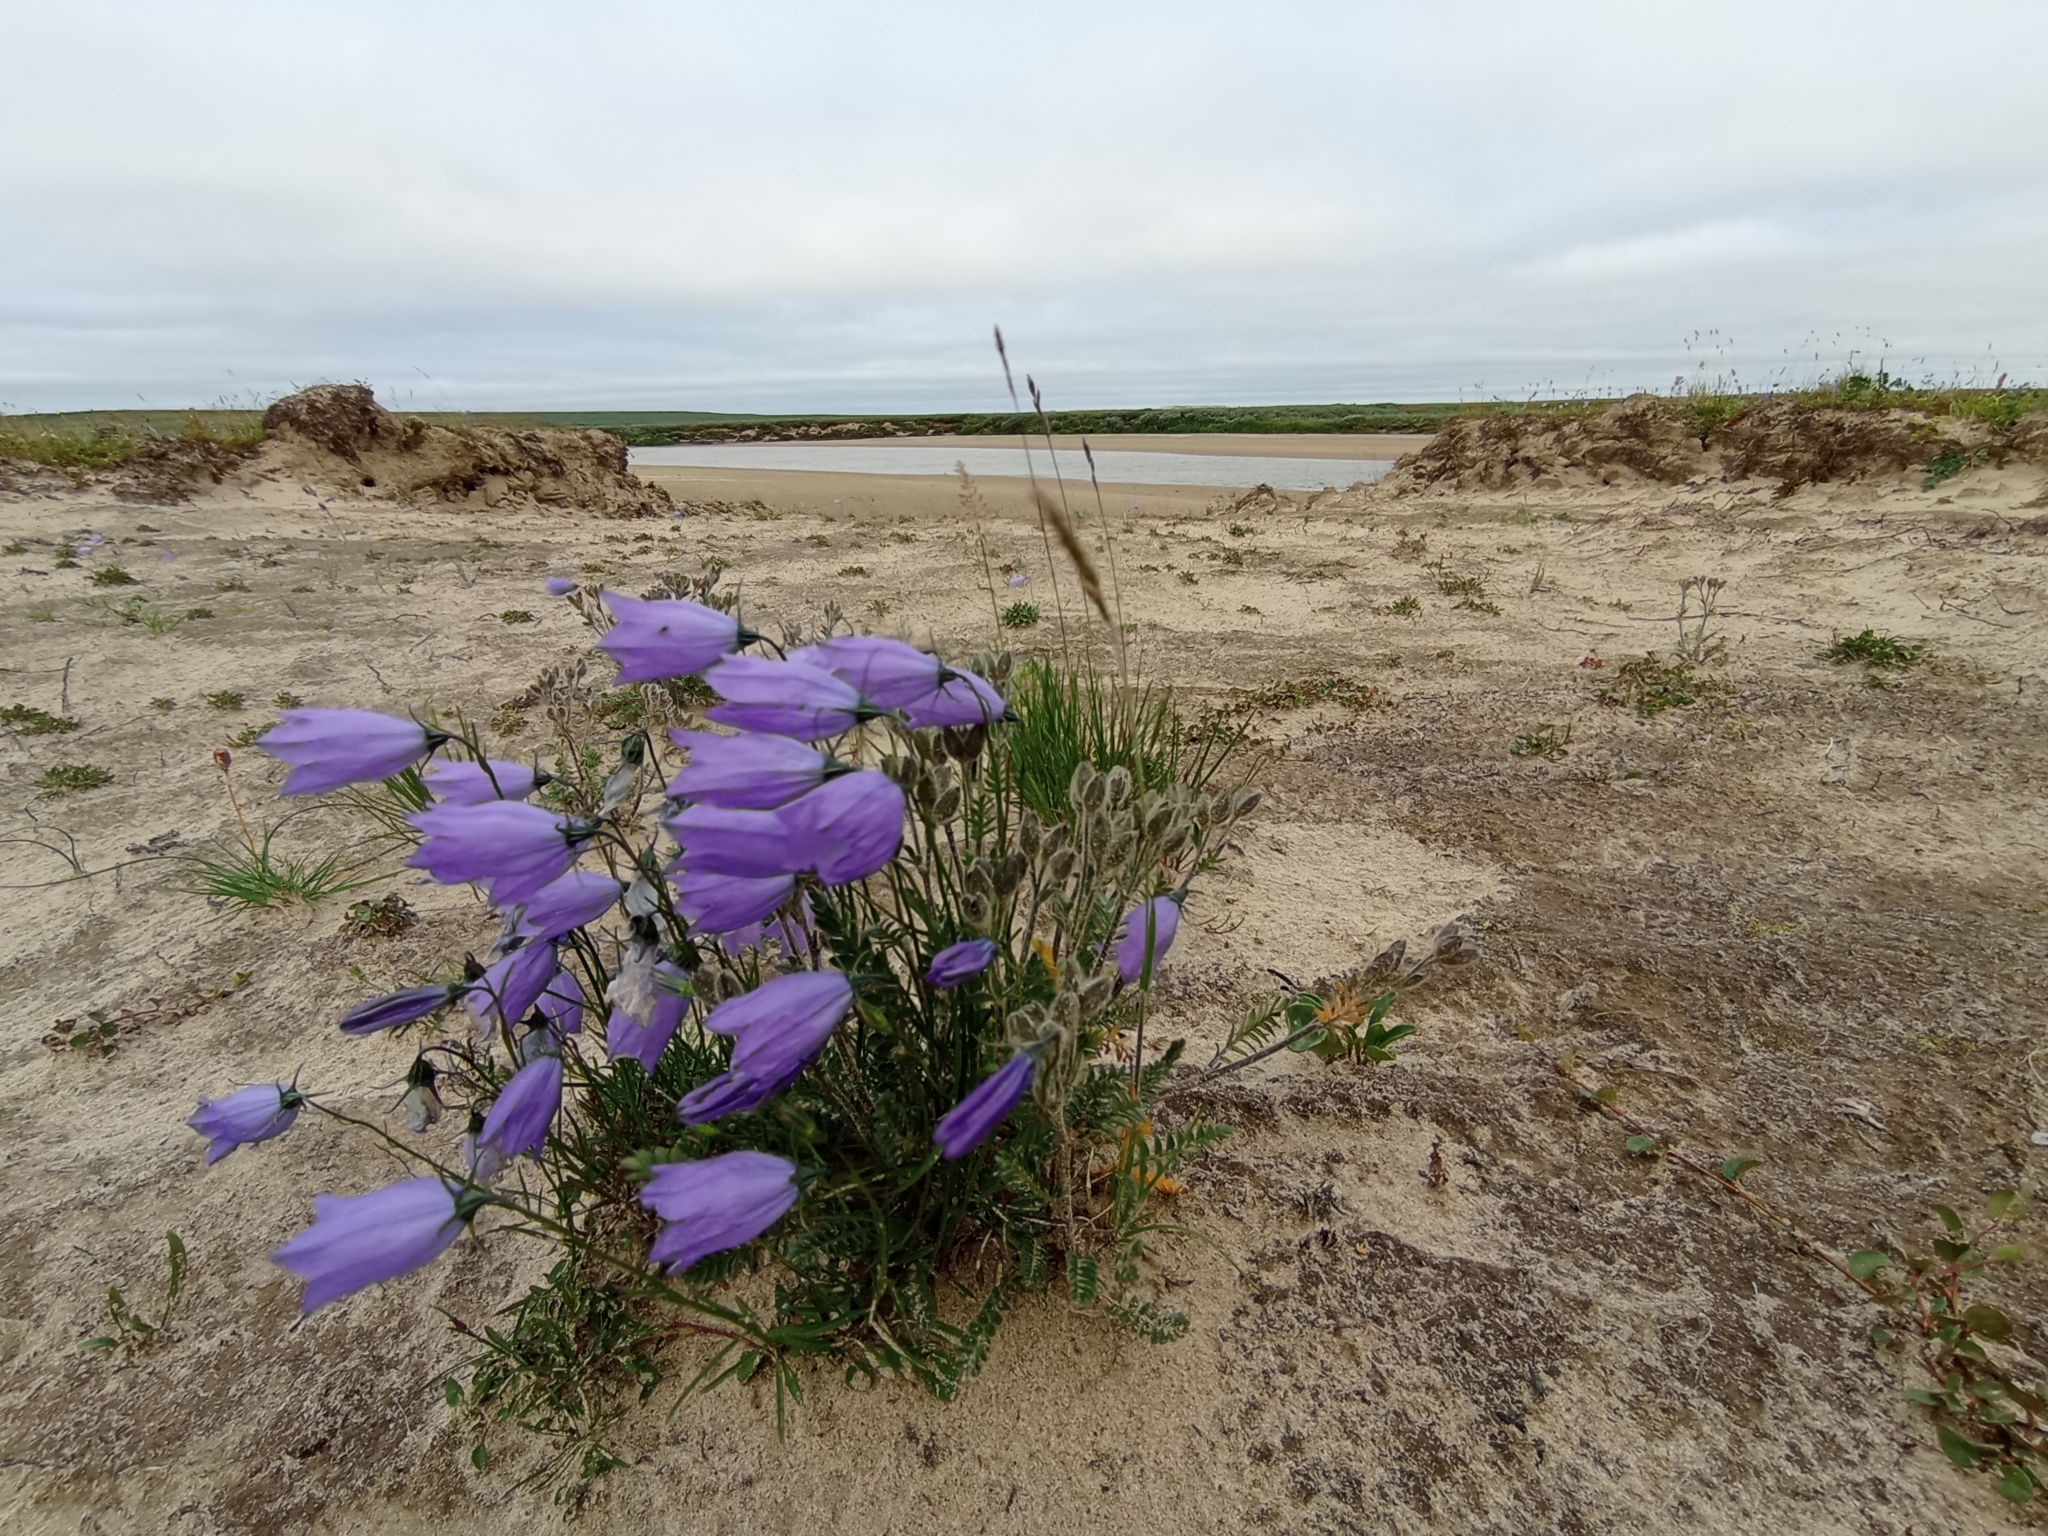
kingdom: Plantae
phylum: Tracheophyta
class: Magnoliopsida
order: Asterales
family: Campanulaceae
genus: Campanula
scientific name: Campanula rotundifolia
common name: Harebell
